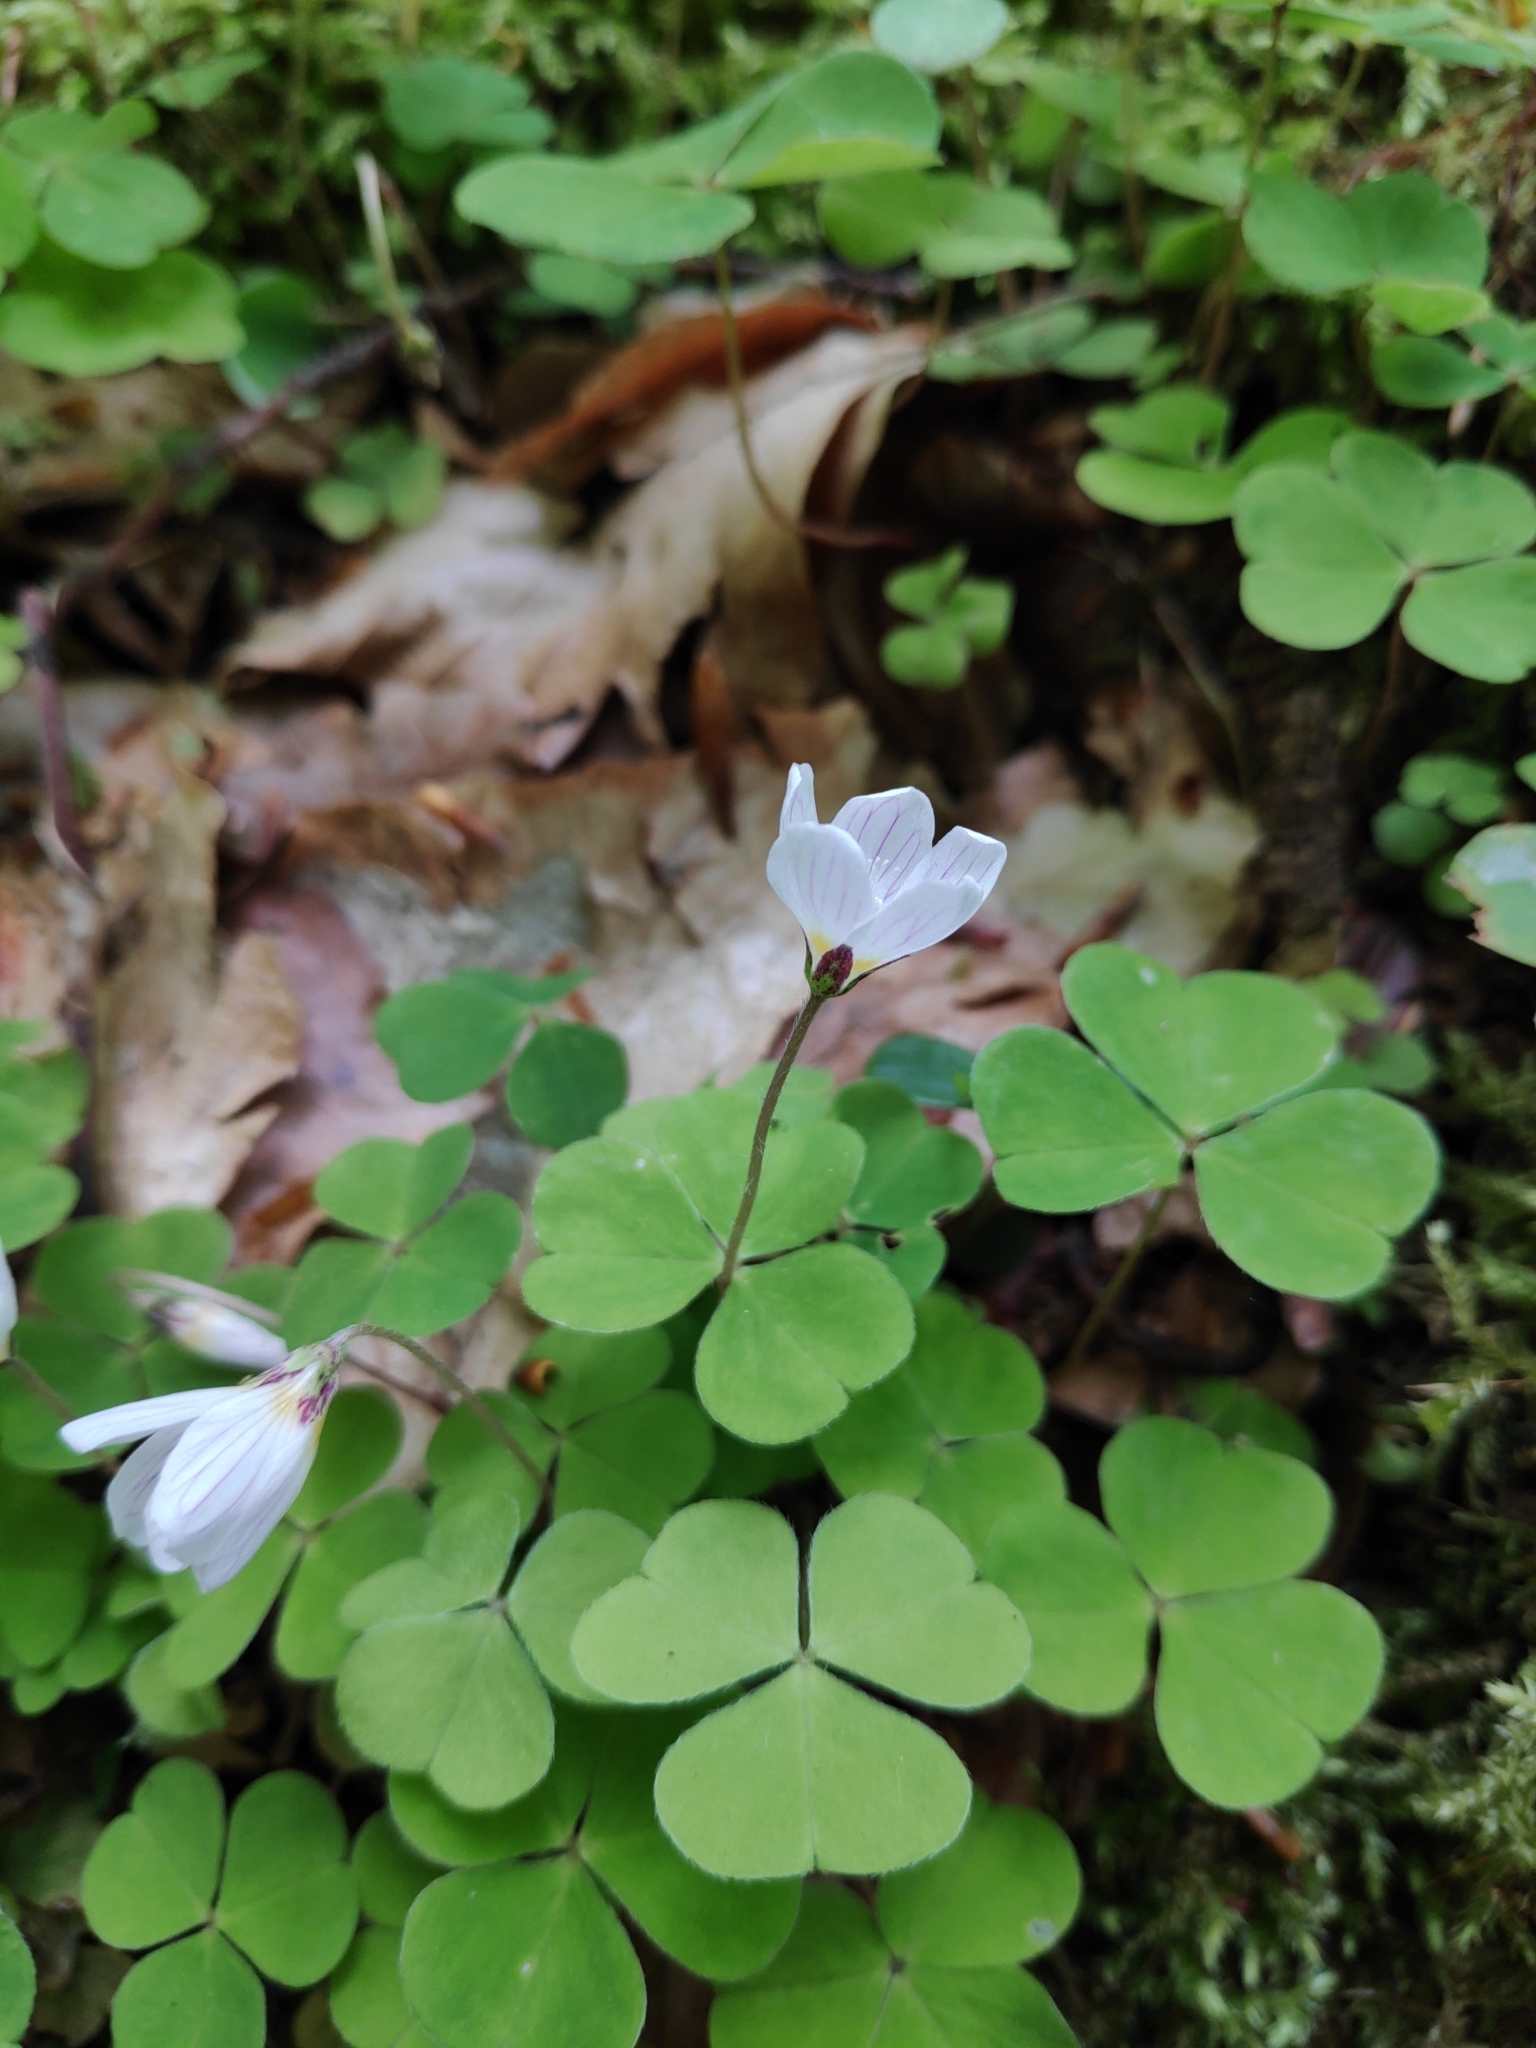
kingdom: Plantae
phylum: Tracheophyta
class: Magnoliopsida
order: Oxalidales
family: Oxalidaceae
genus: Oxalis
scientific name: Oxalis acetosella
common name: Wood-sorrel
